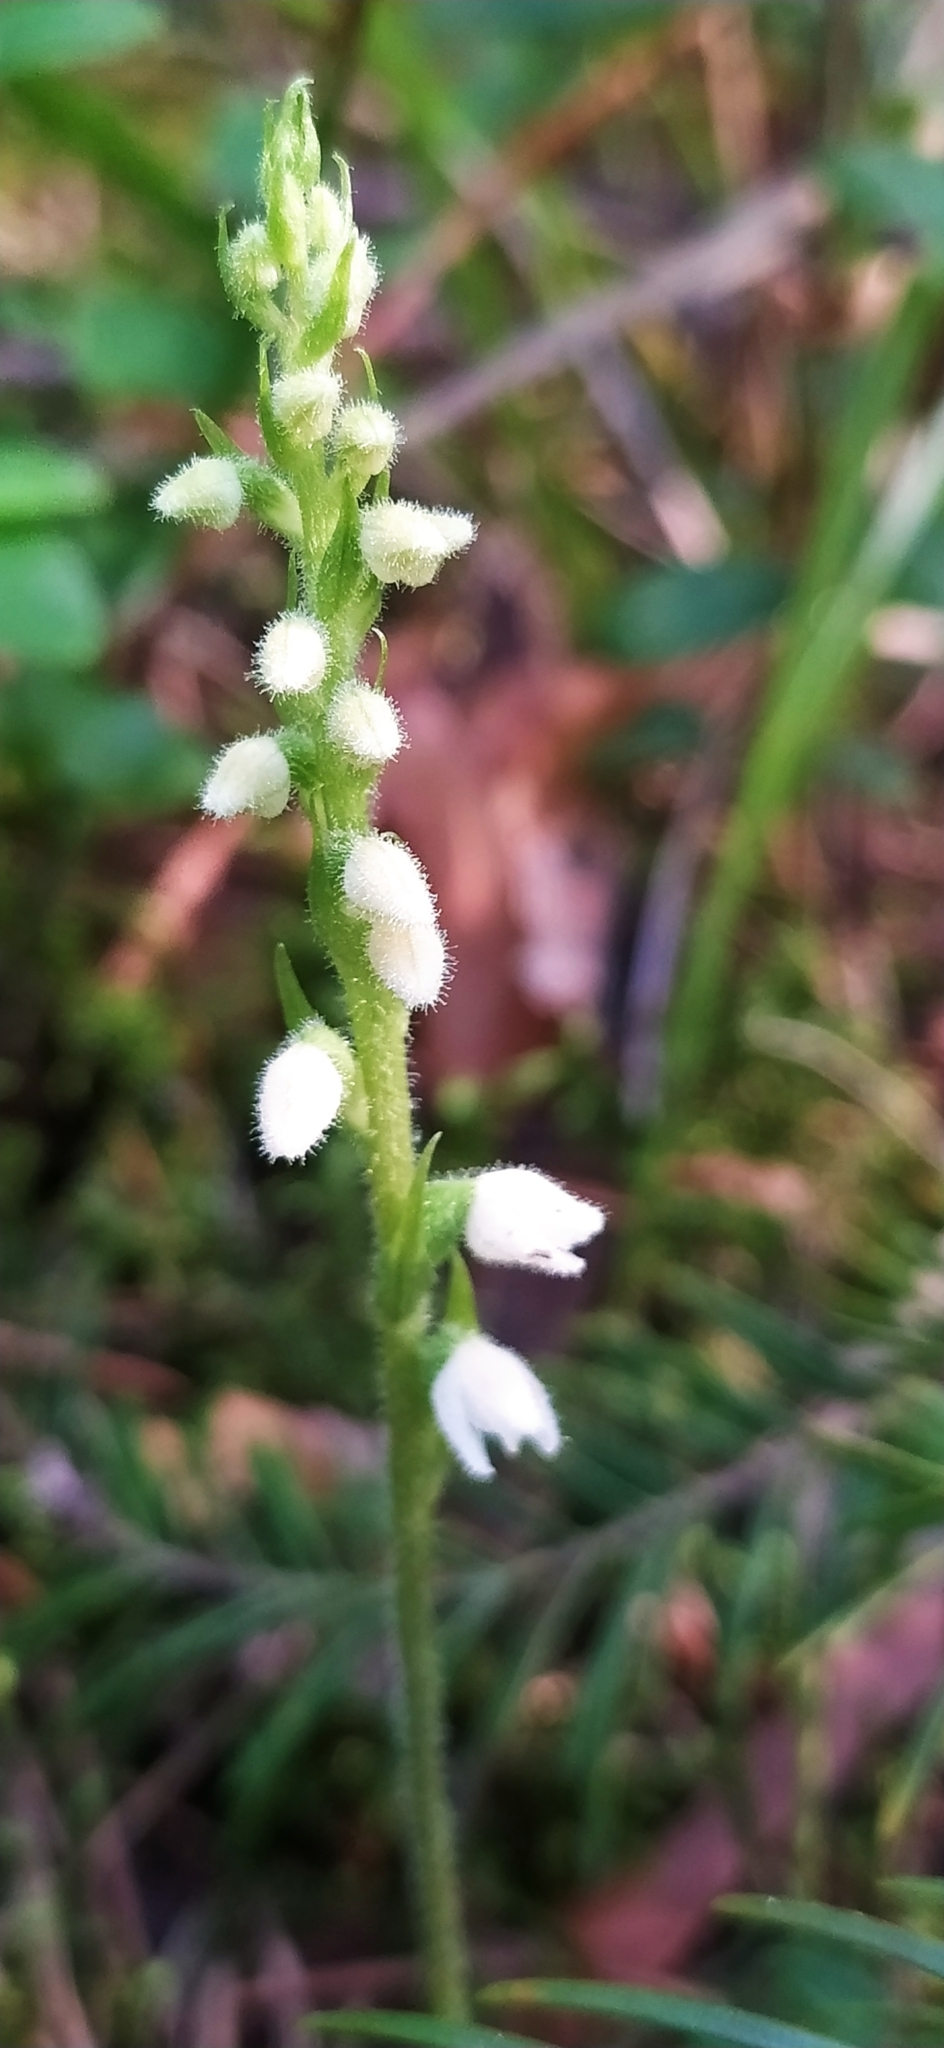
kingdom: Plantae
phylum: Tracheophyta
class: Liliopsida
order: Asparagales
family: Orchidaceae
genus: Goodyera
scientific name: Goodyera repens
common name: Creeping lady's-tresses
